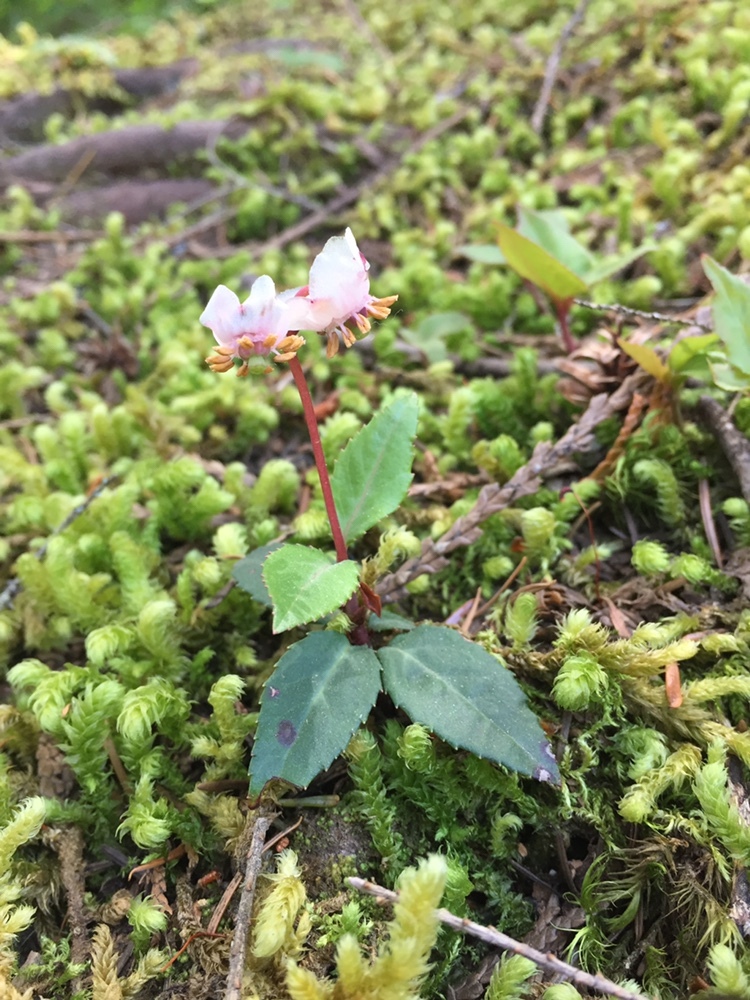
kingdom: Plantae
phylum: Tracheophyta
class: Magnoliopsida
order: Ericales
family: Ericaceae
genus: Chimaphila
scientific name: Chimaphila menziesii
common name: Menzies' pipsissewa
